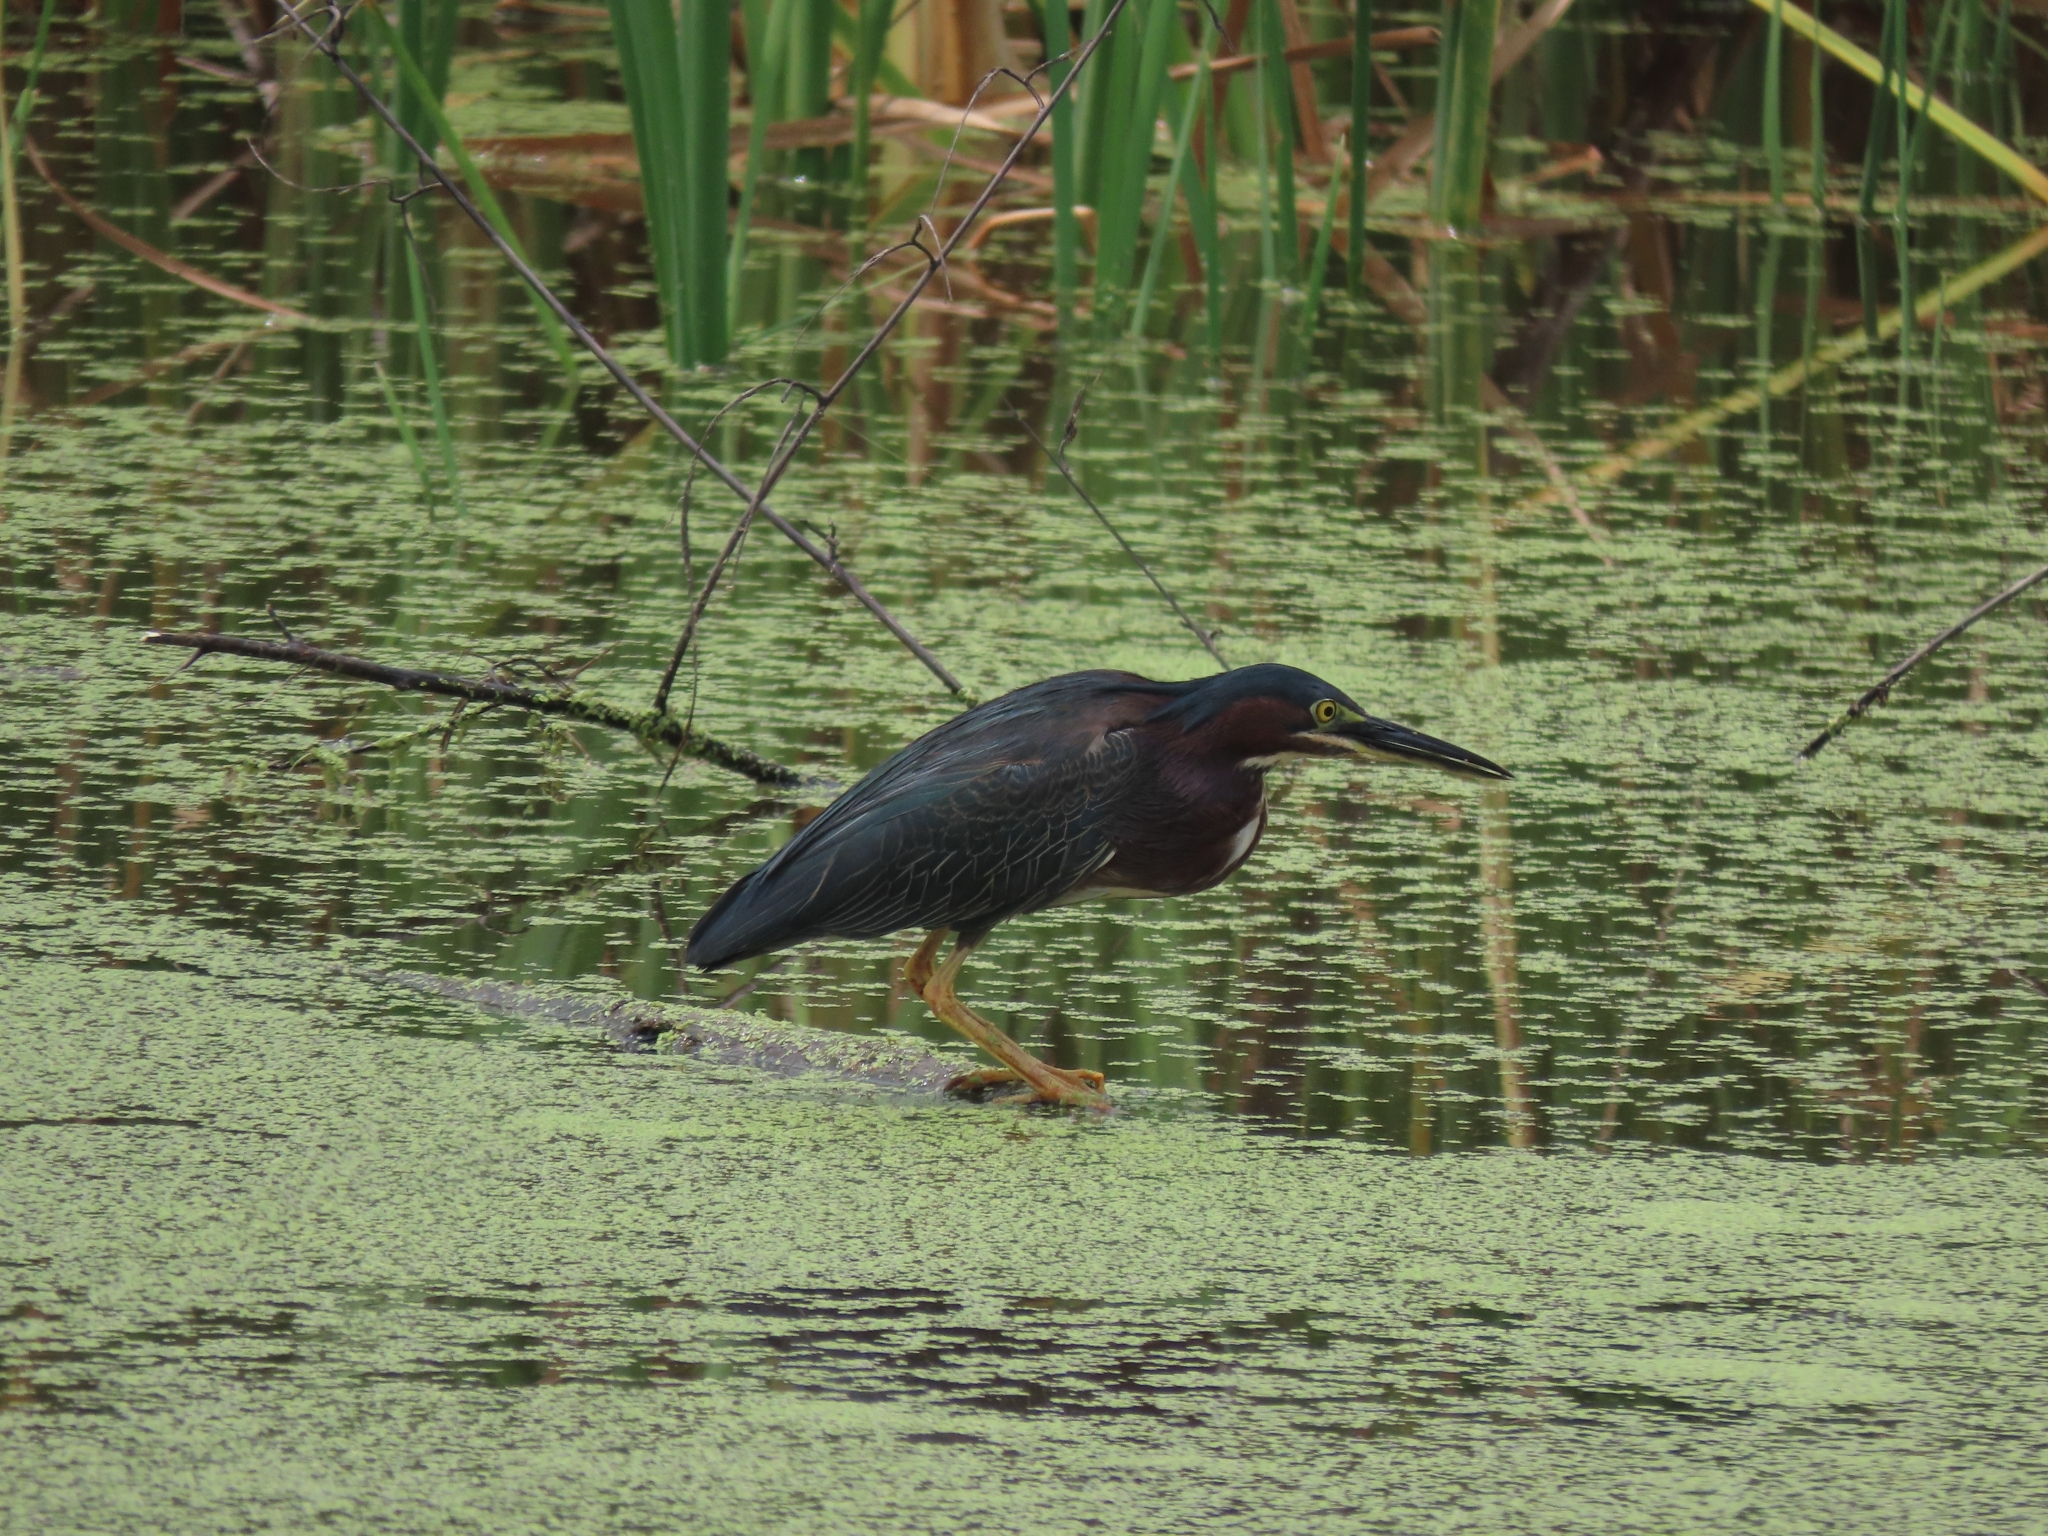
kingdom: Animalia
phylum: Chordata
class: Aves
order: Pelecaniformes
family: Ardeidae
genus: Butorides
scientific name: Butorides virescens
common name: Green heron
